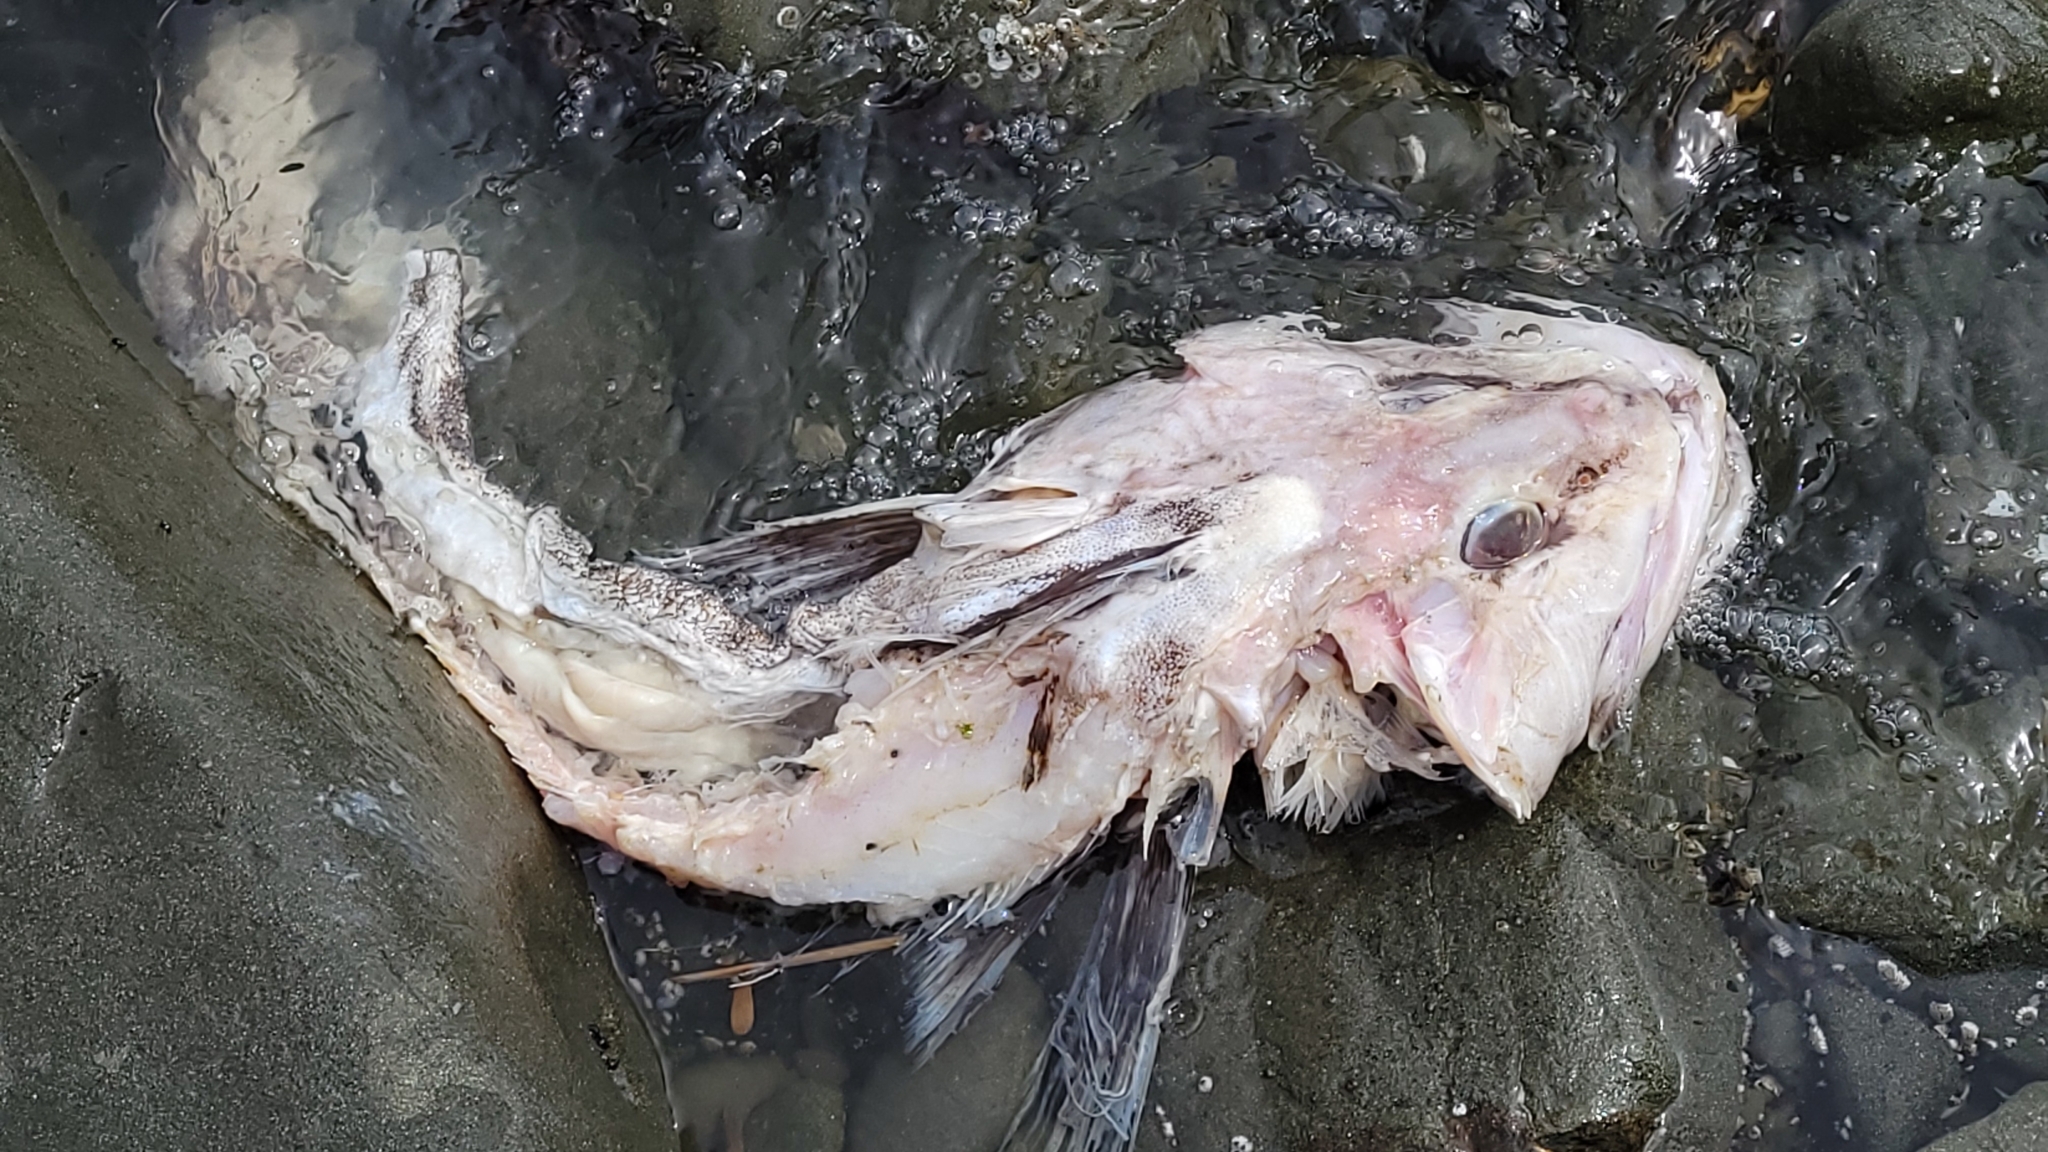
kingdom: Animalia
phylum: Chordata
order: Scorpaeniformes
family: Hexagrammidae
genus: Ophiodon
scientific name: Ophiodon elongatus
